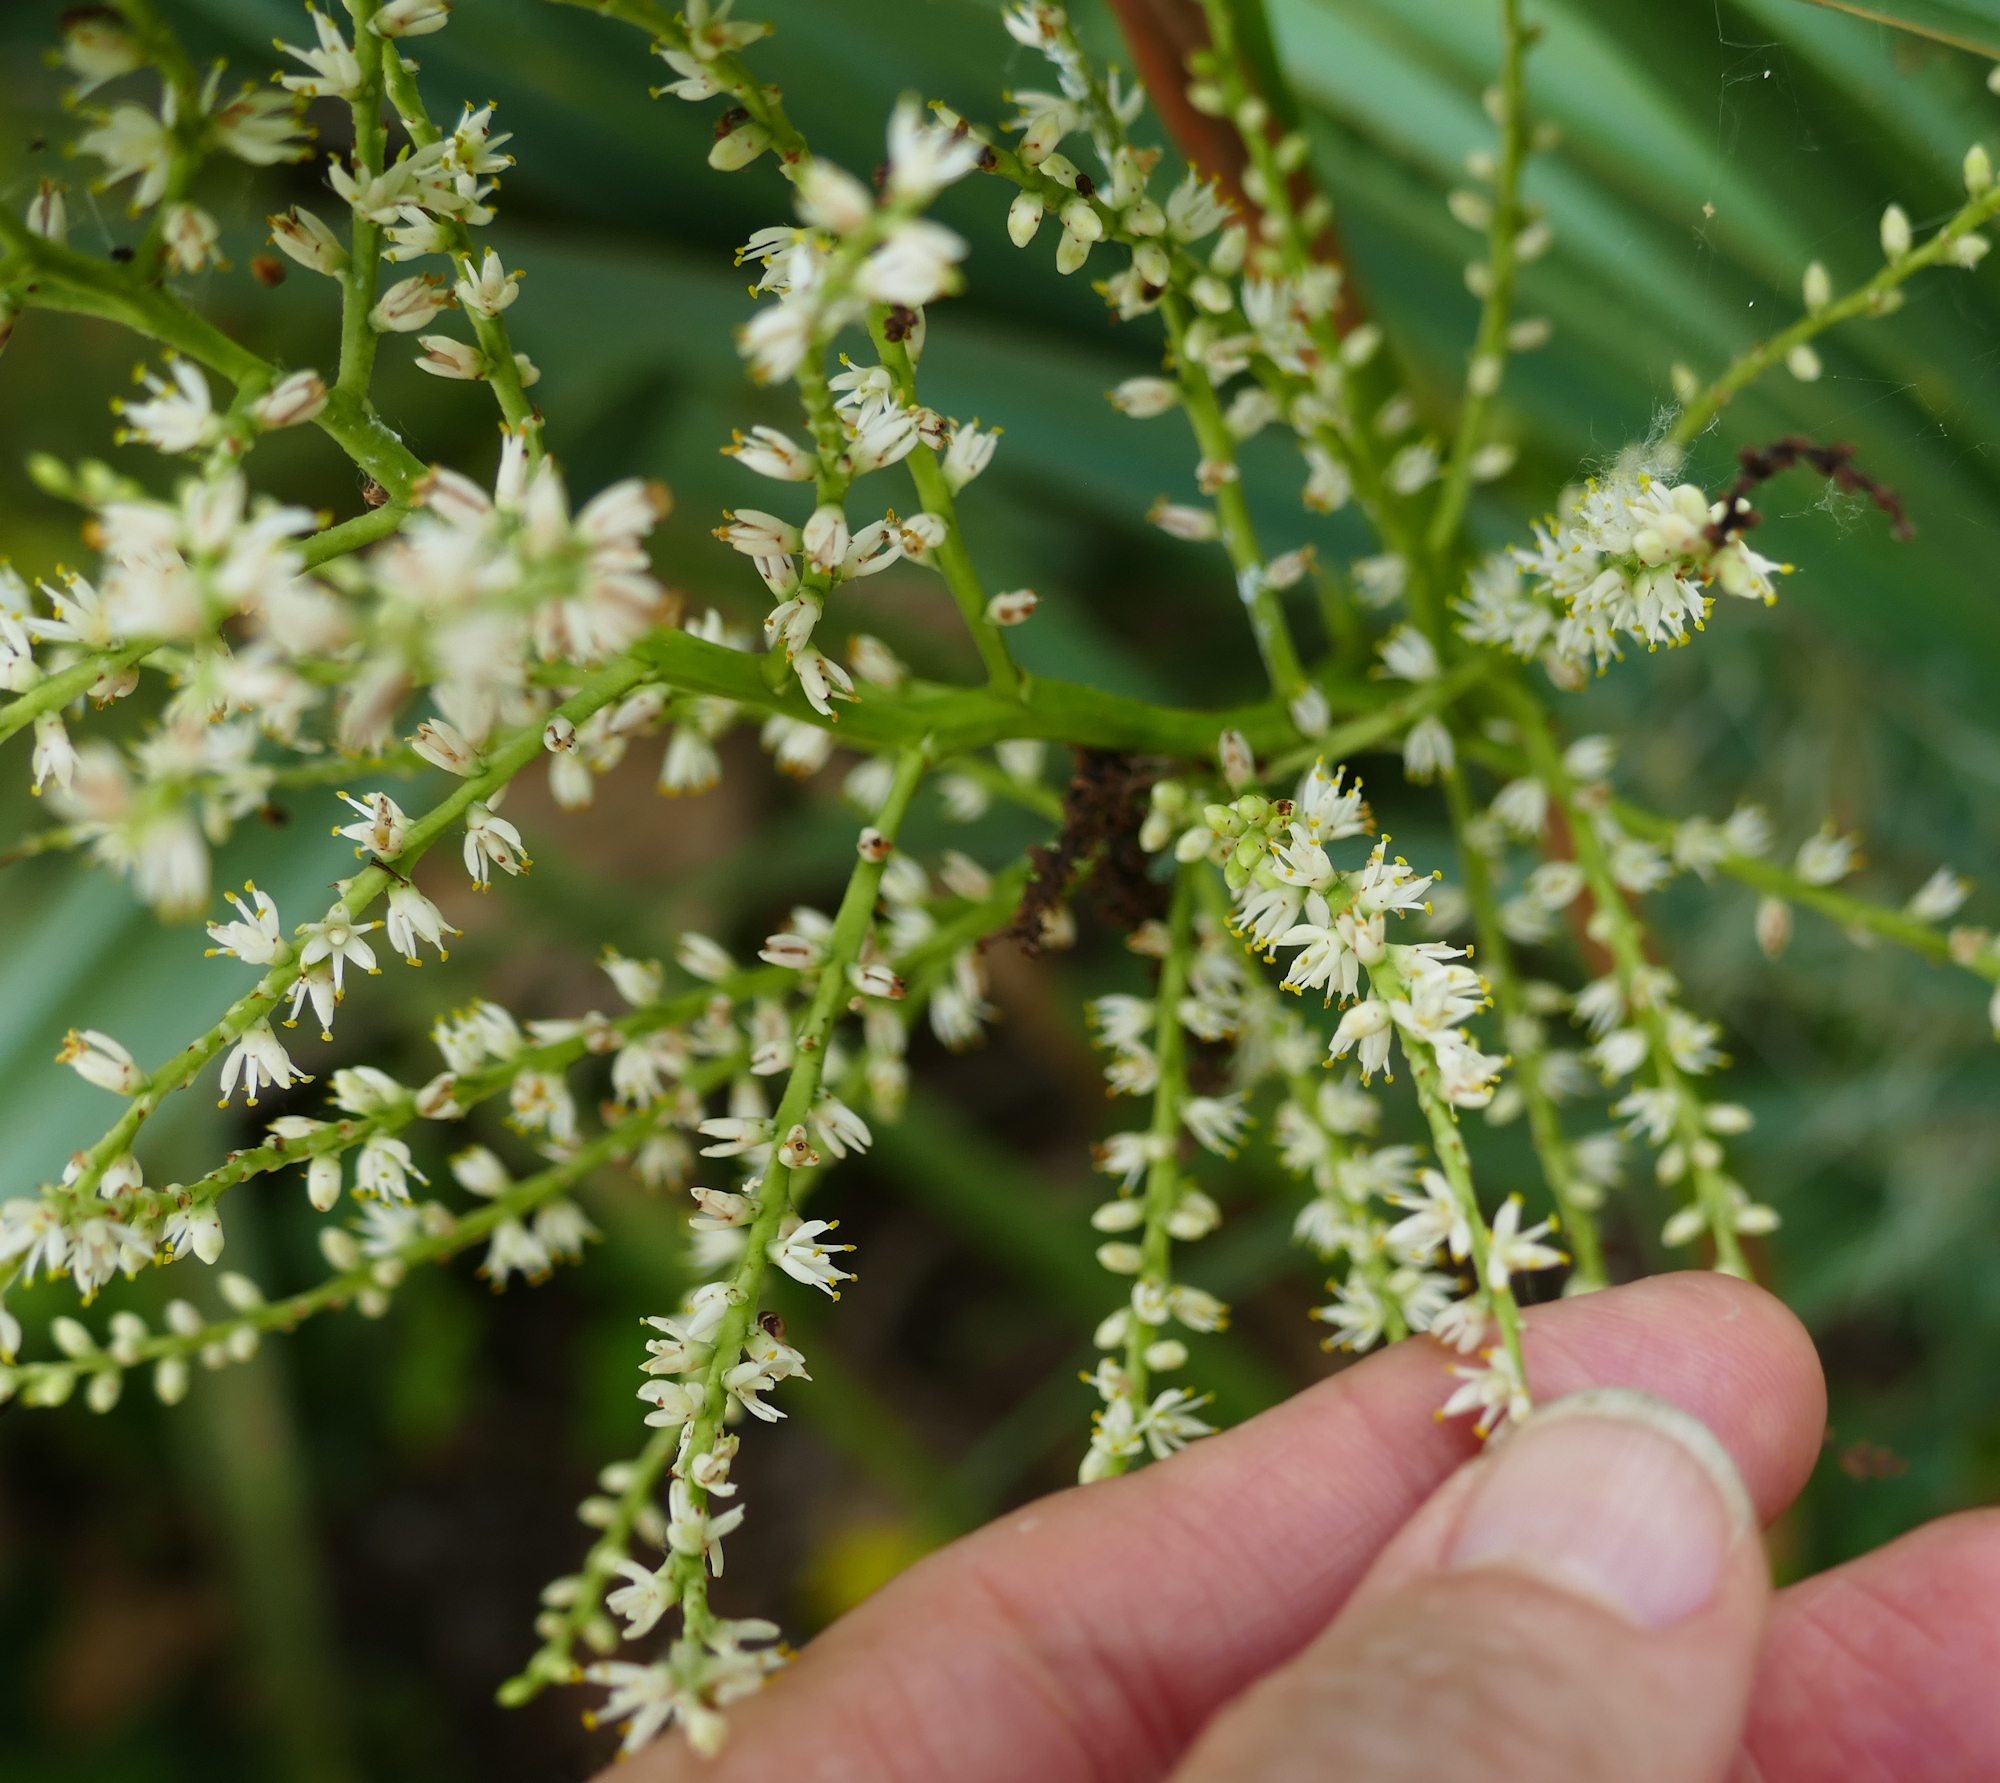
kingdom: Plantae
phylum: Tracheophyta
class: Liliopsida
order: Arecales
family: Arecaceae
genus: Sabal
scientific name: Sabal minor
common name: Dwarf palmetto
